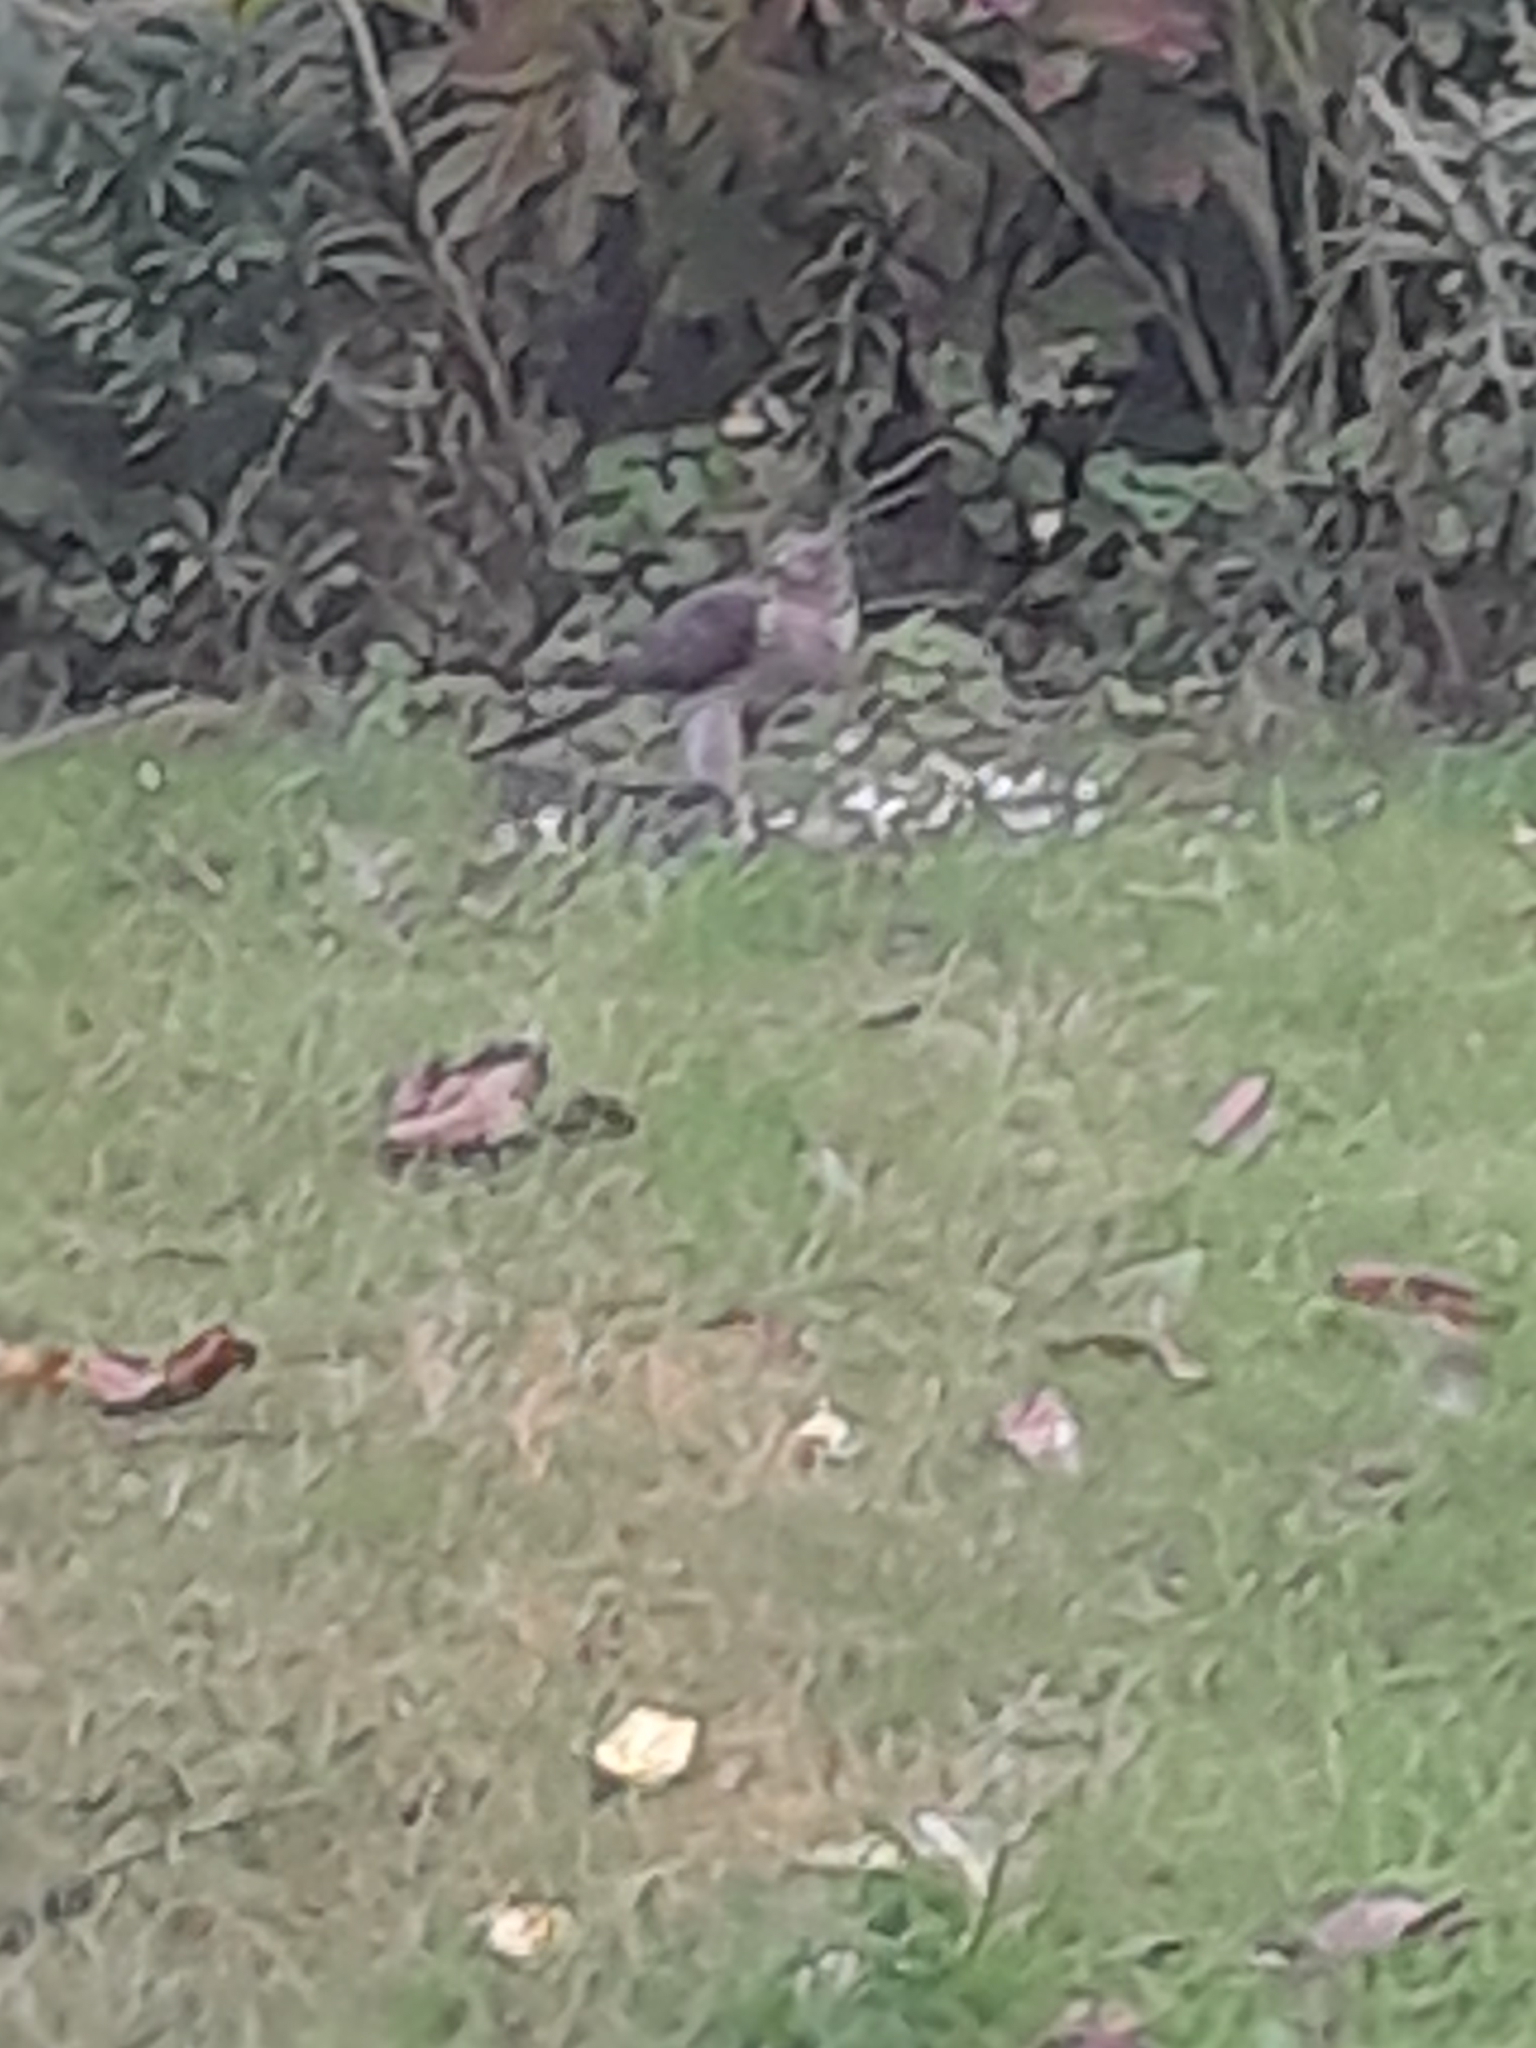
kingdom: Animalia
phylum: Chordata
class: Aves
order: Accipitriformes
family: Accipitridae
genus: Accipiter
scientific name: Accipiter nisus
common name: Eurasian sparrowhawk
